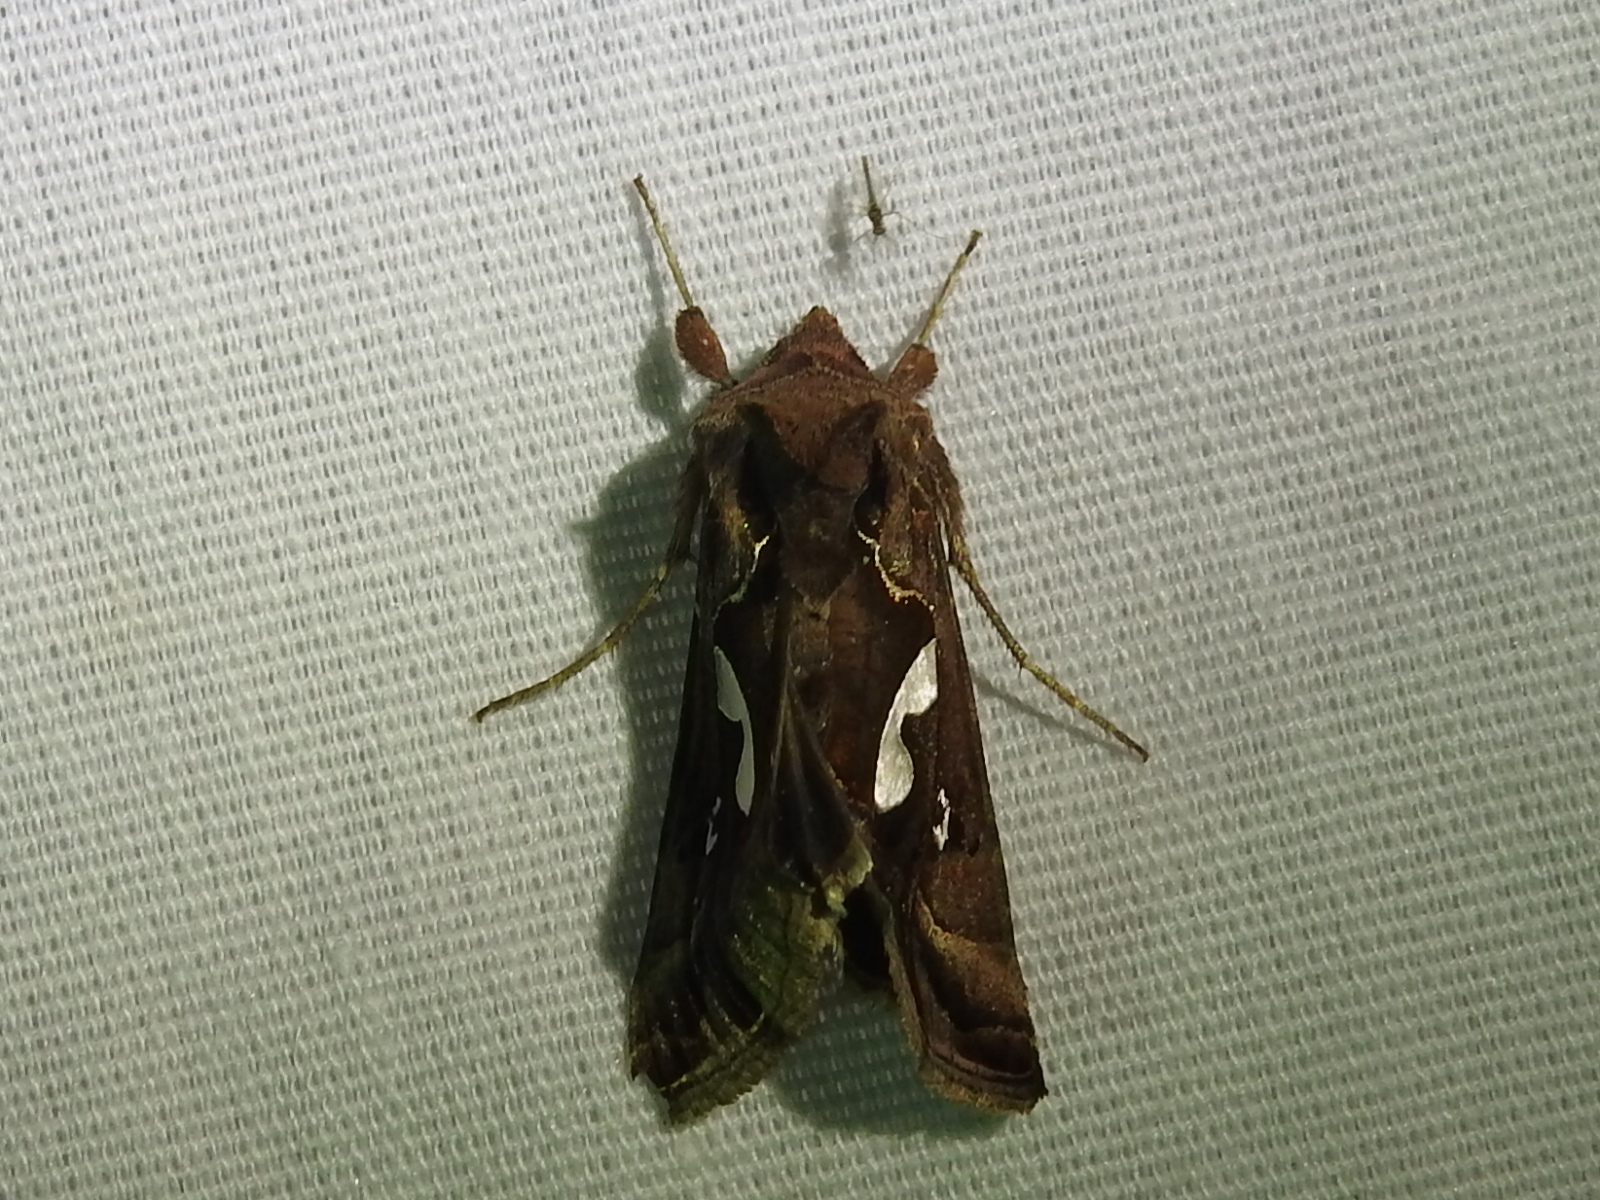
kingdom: Animalia
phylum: Arthropoda
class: Insecta
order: Lepidoptera
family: Noctuidae
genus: Megalographa
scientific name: Megalographa biloba
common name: Cutworm
